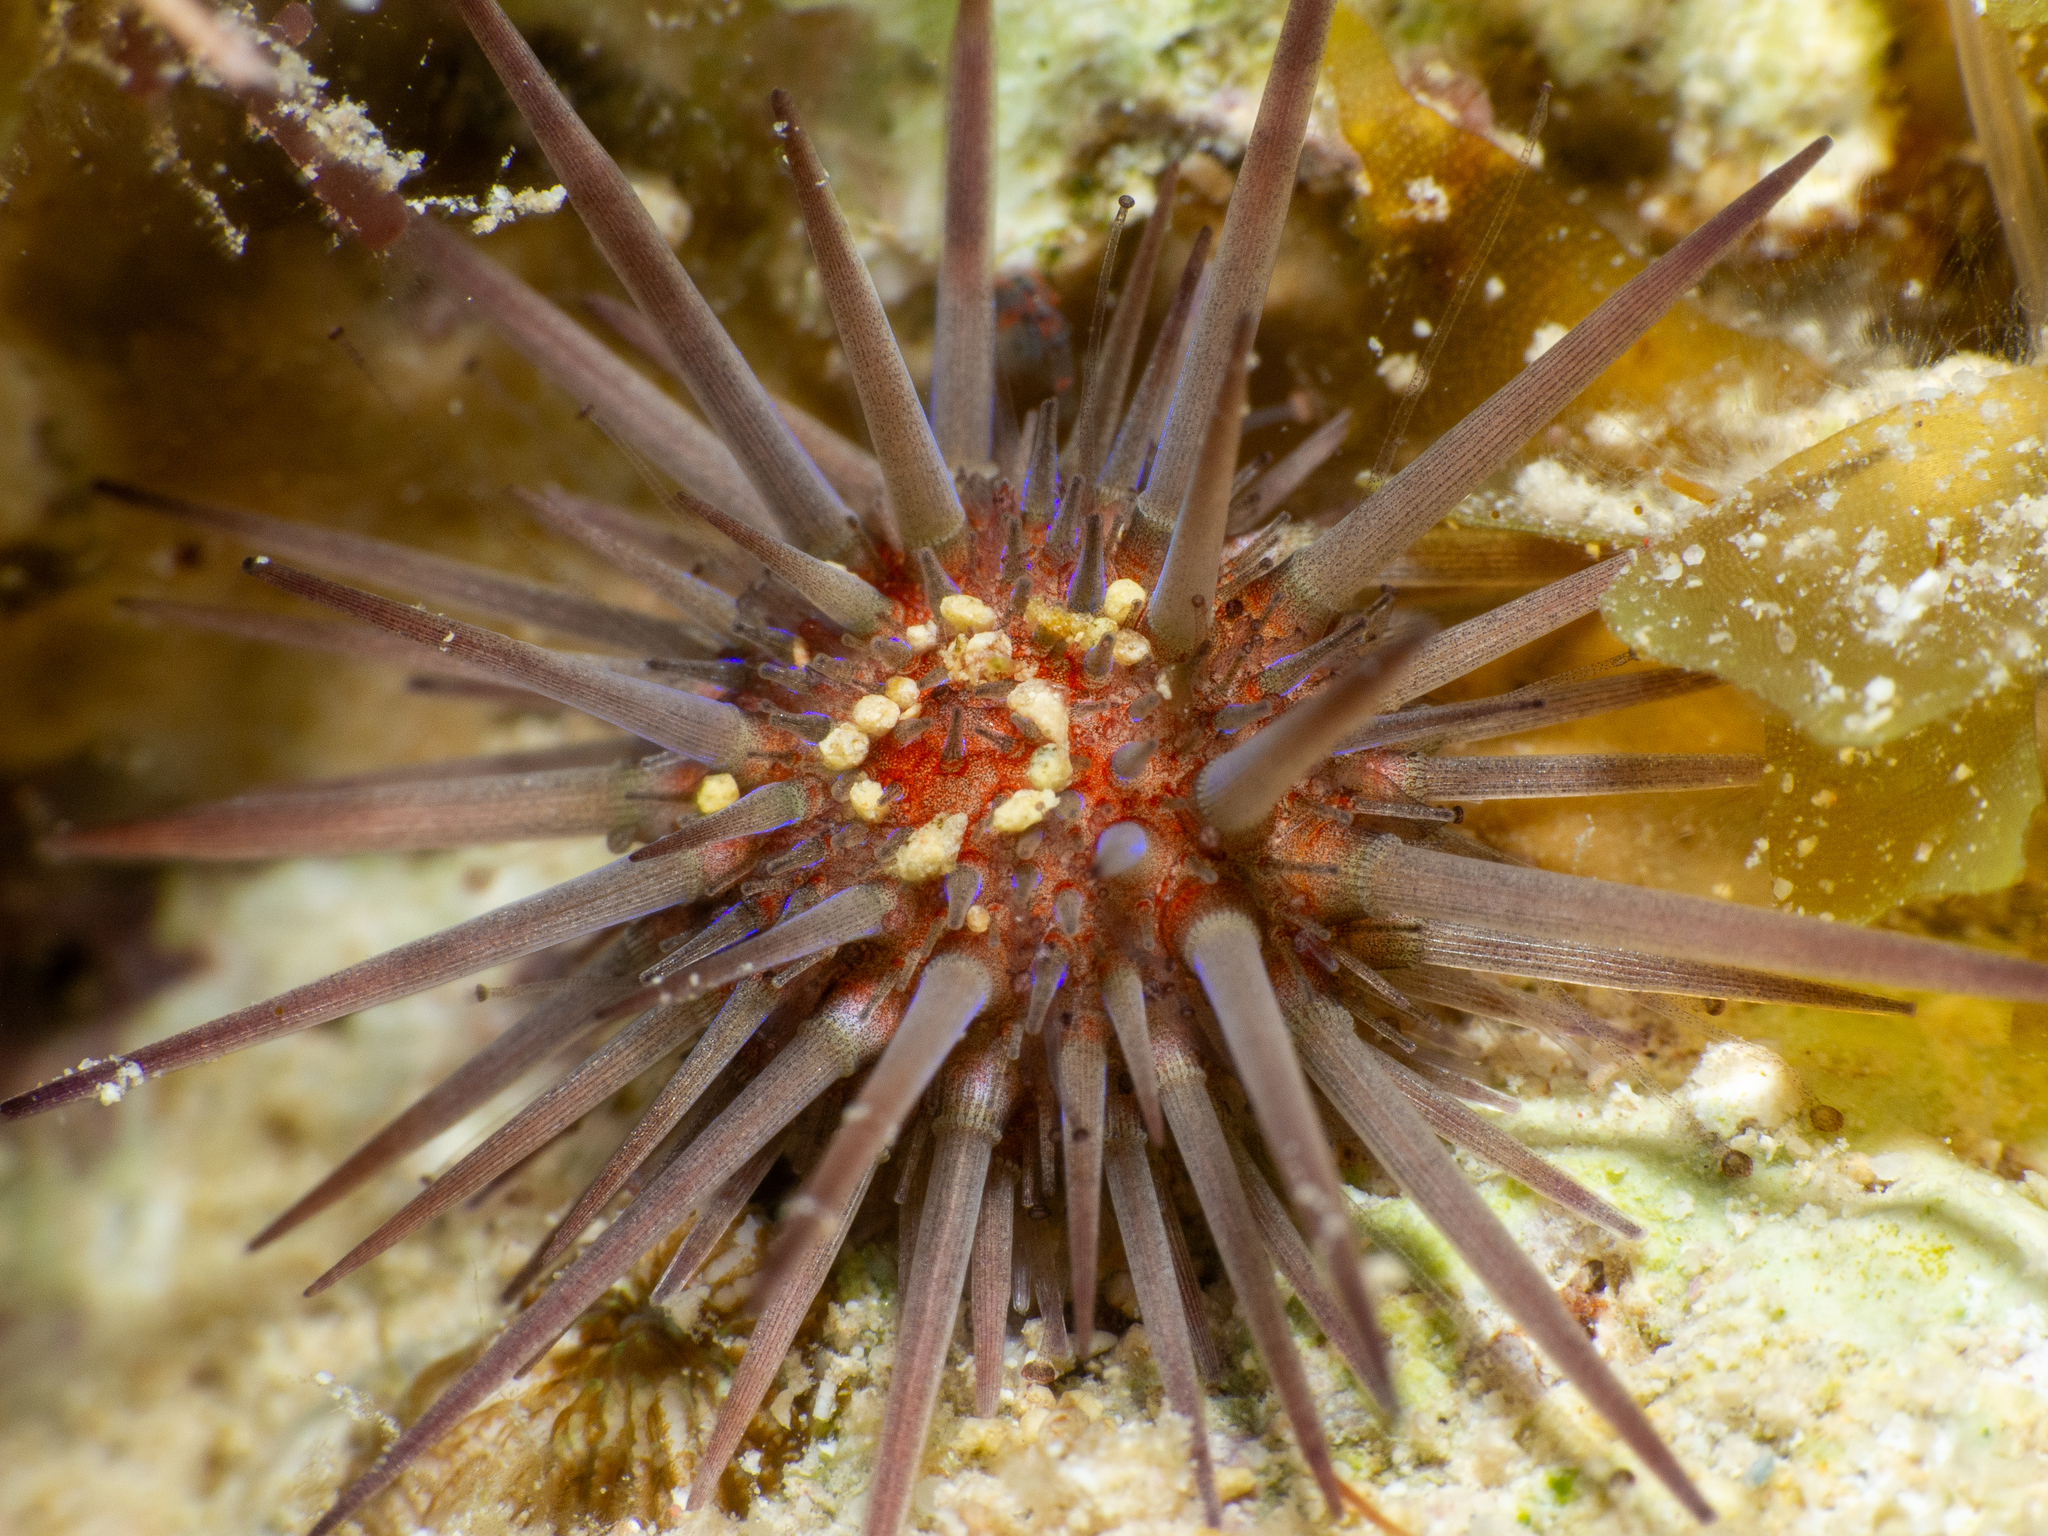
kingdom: Animalia
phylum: Echinodermata
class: Echinoidea
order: Camarodonta
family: Echinometridae
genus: Echinometra
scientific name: Echinometra lucunter
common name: Rock urchin
